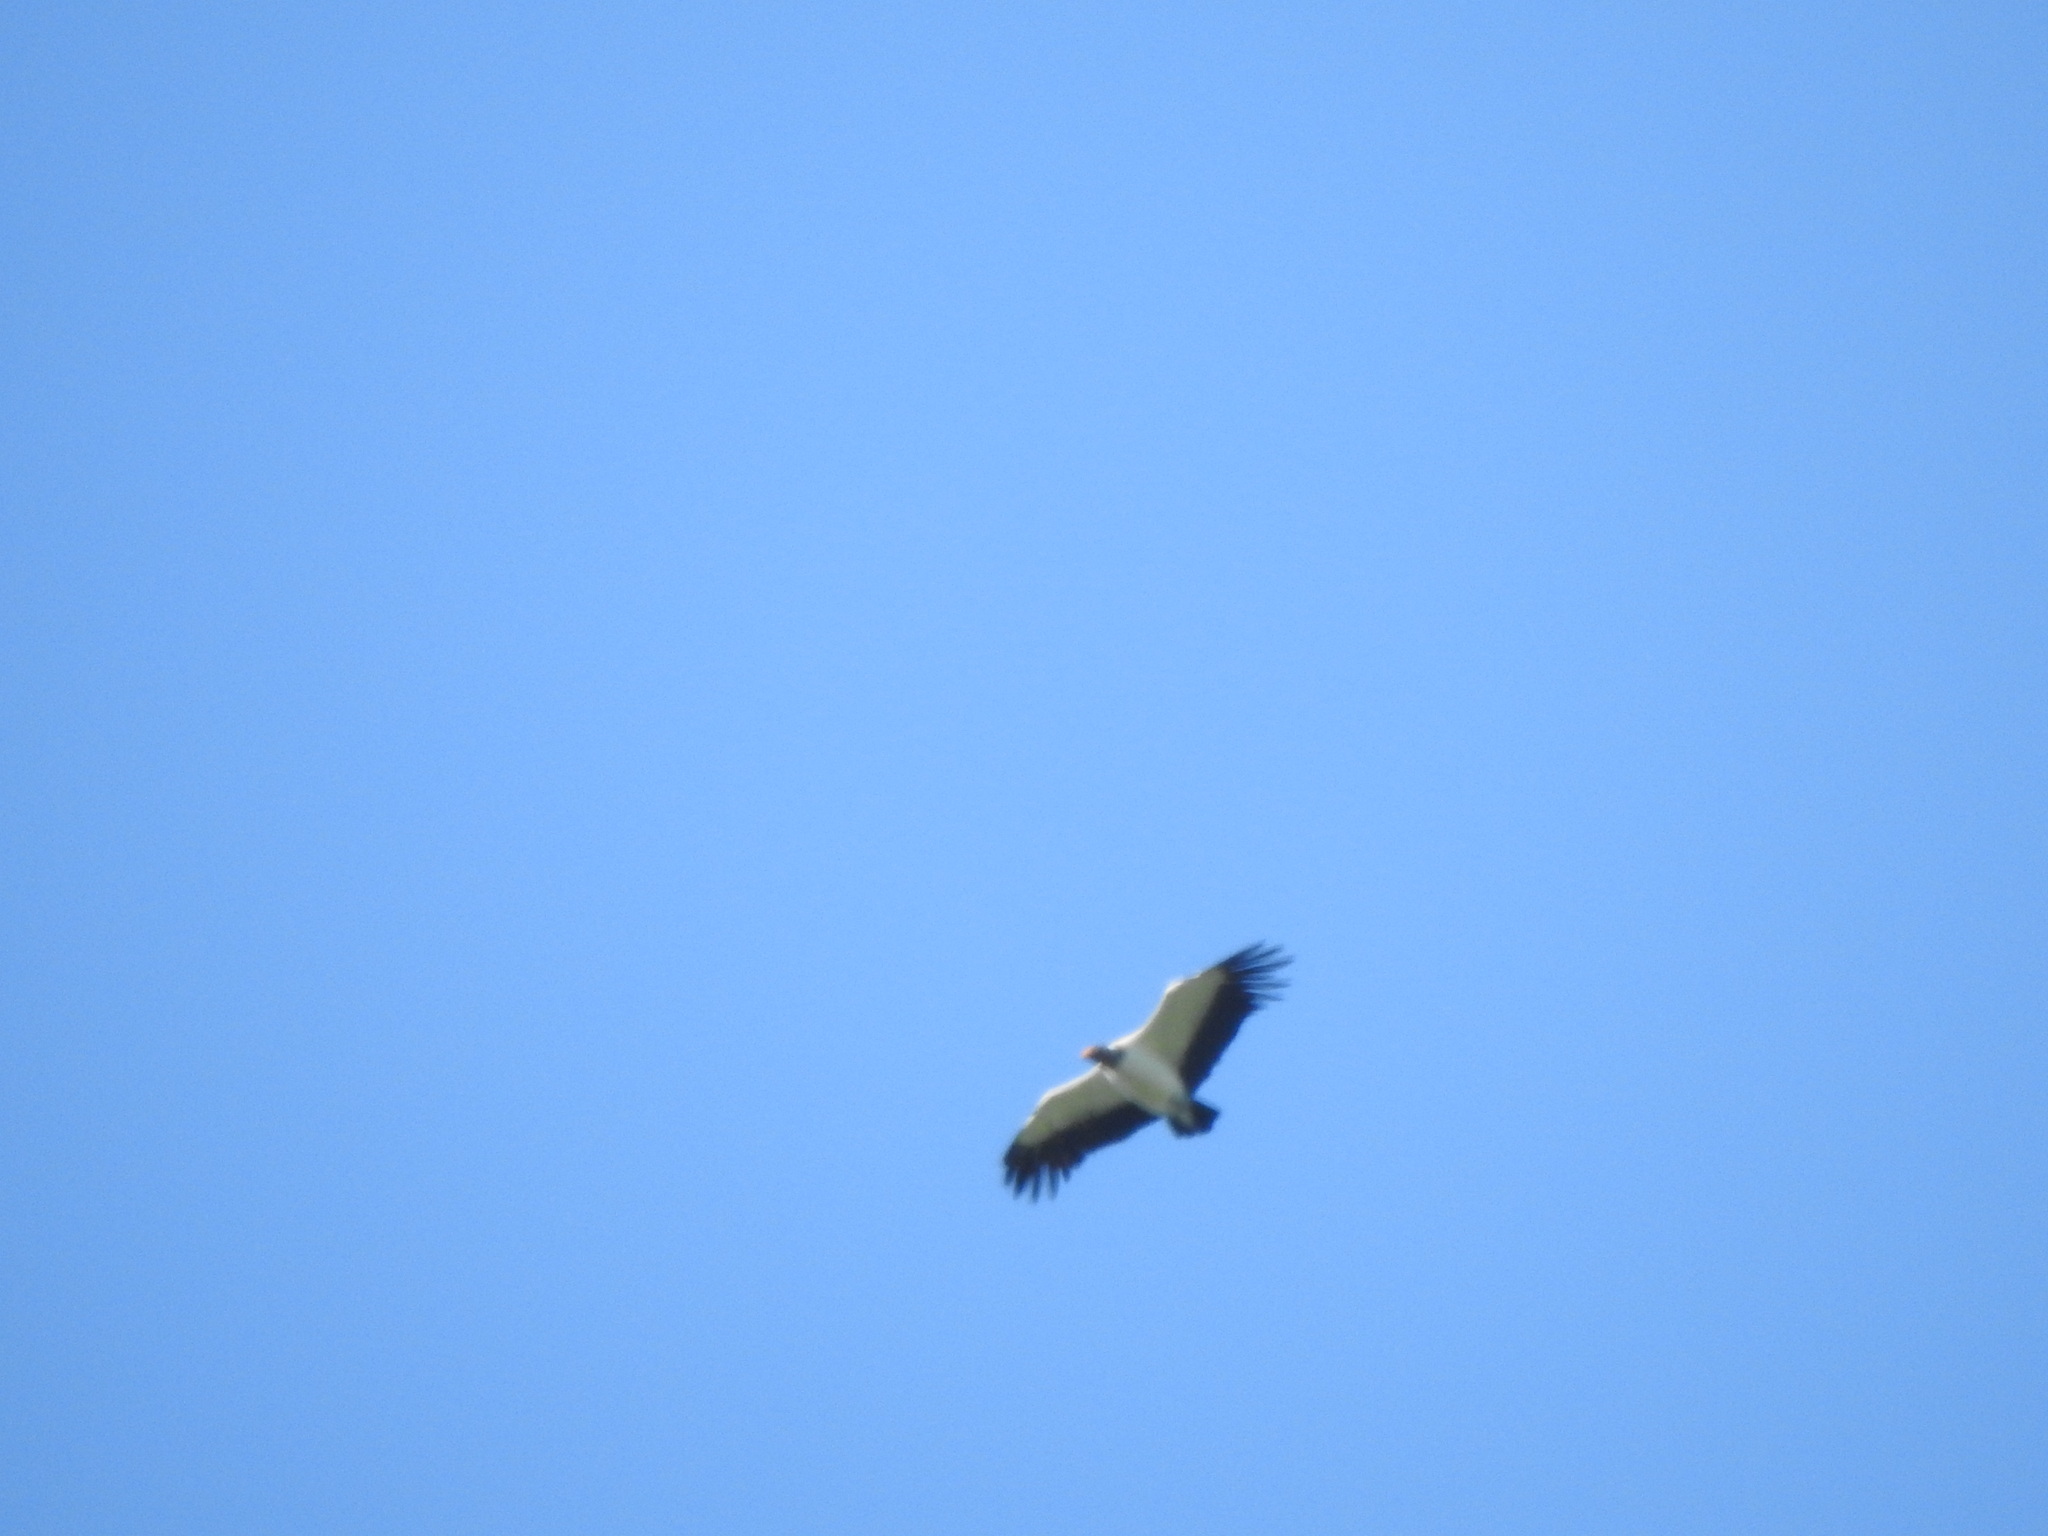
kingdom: Animalia
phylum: Chordata
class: Aves
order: Accipitriformes
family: Cathartidae
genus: Sarcoramphus
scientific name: Sarcoramphus papa
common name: King vulture
